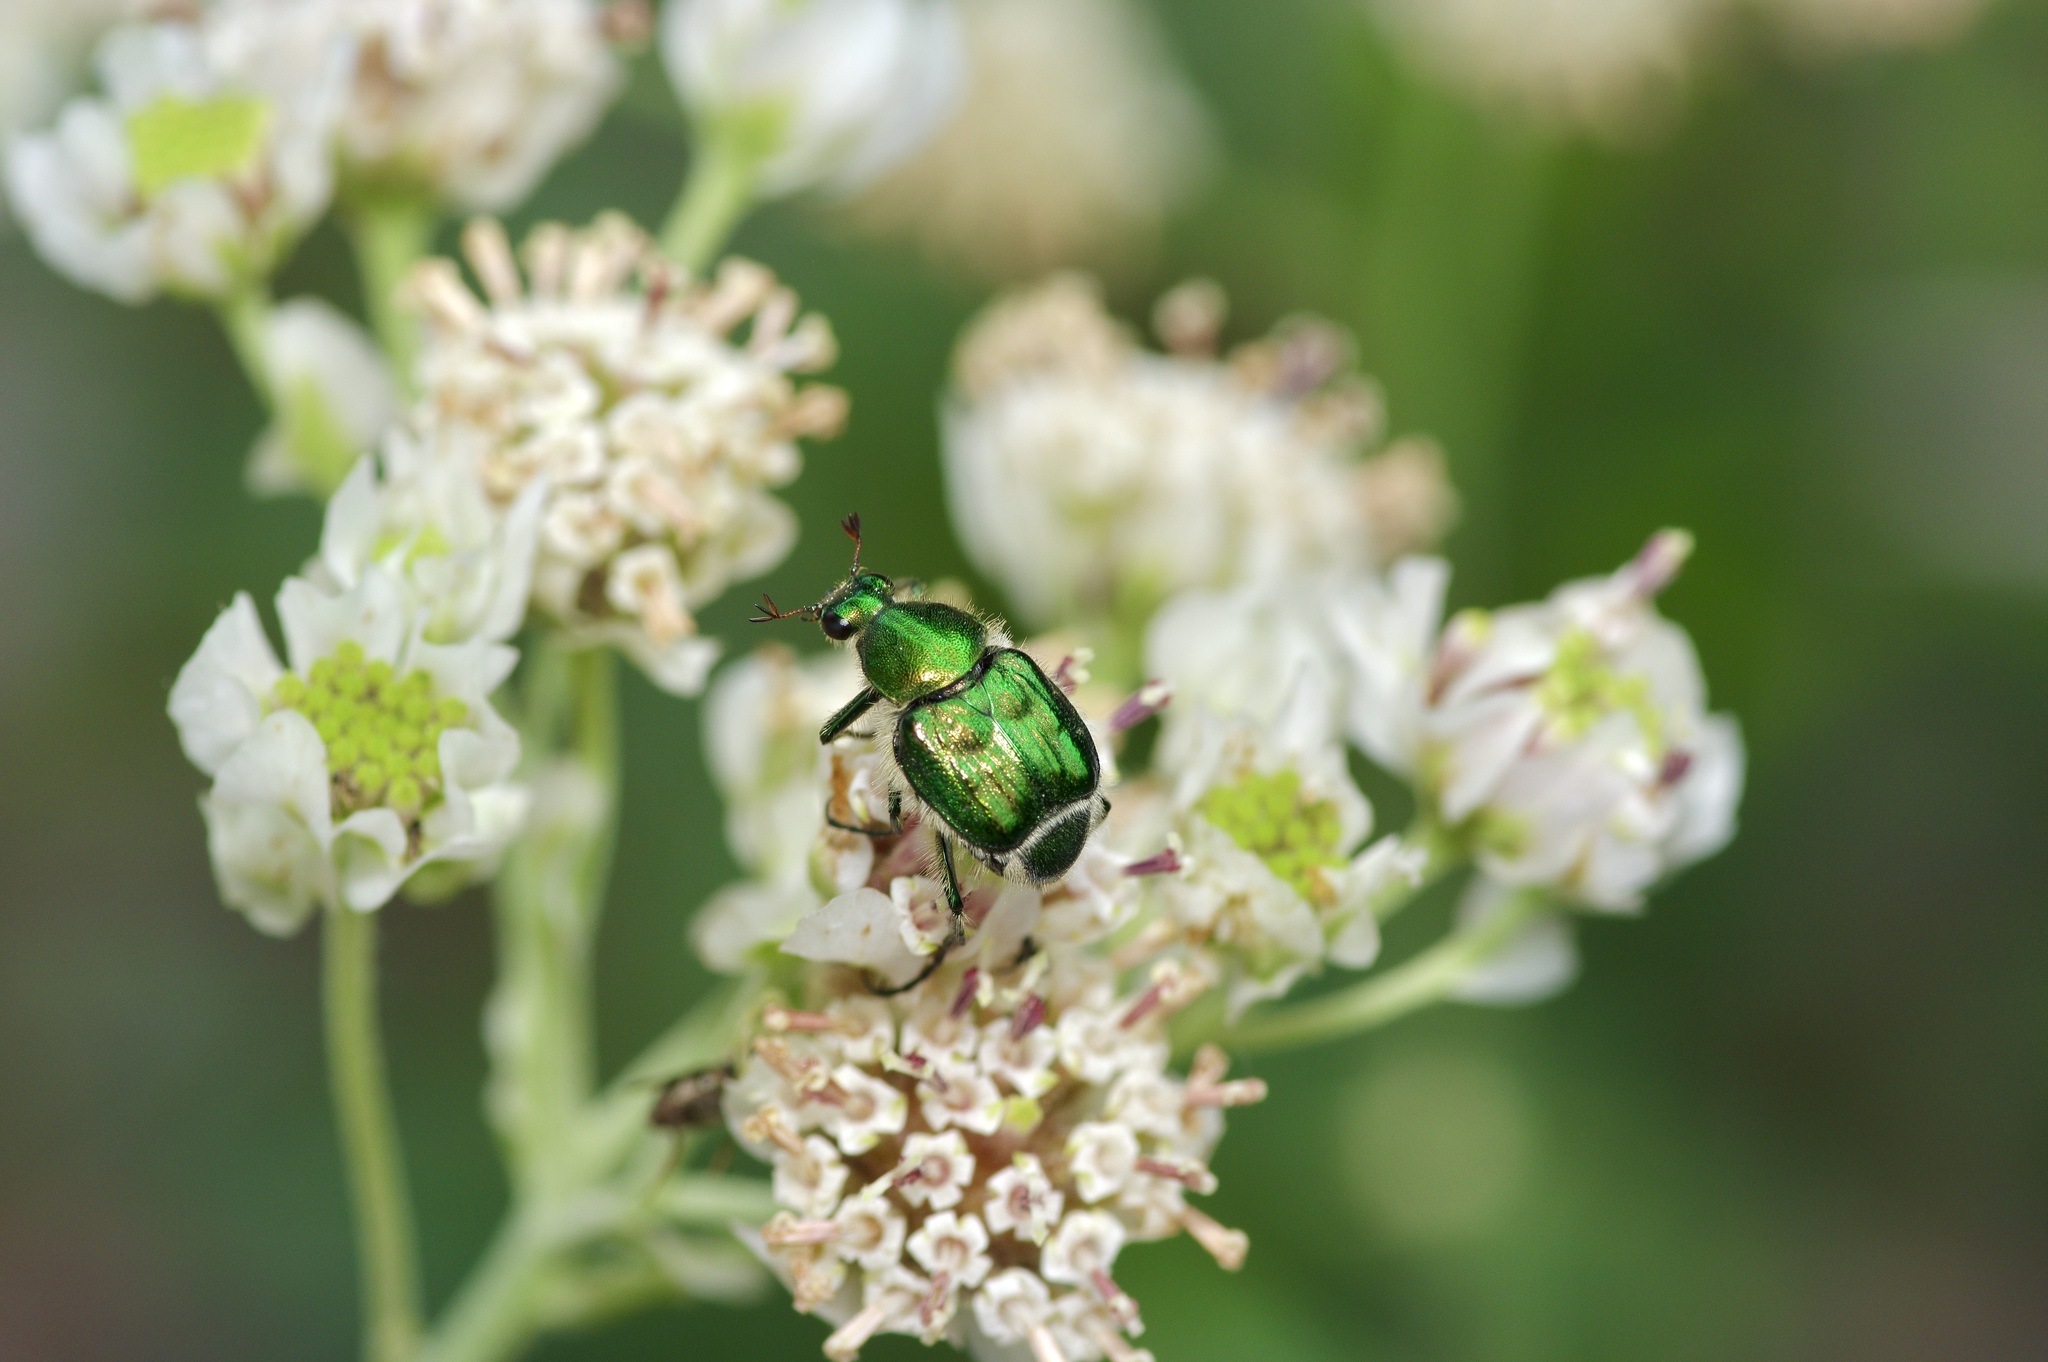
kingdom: Animalia
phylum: Arthropoda
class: Insecta
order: Coleoptera
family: Scarabaeidae
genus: Trichiotinus
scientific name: Trichiotinus lunulatus
